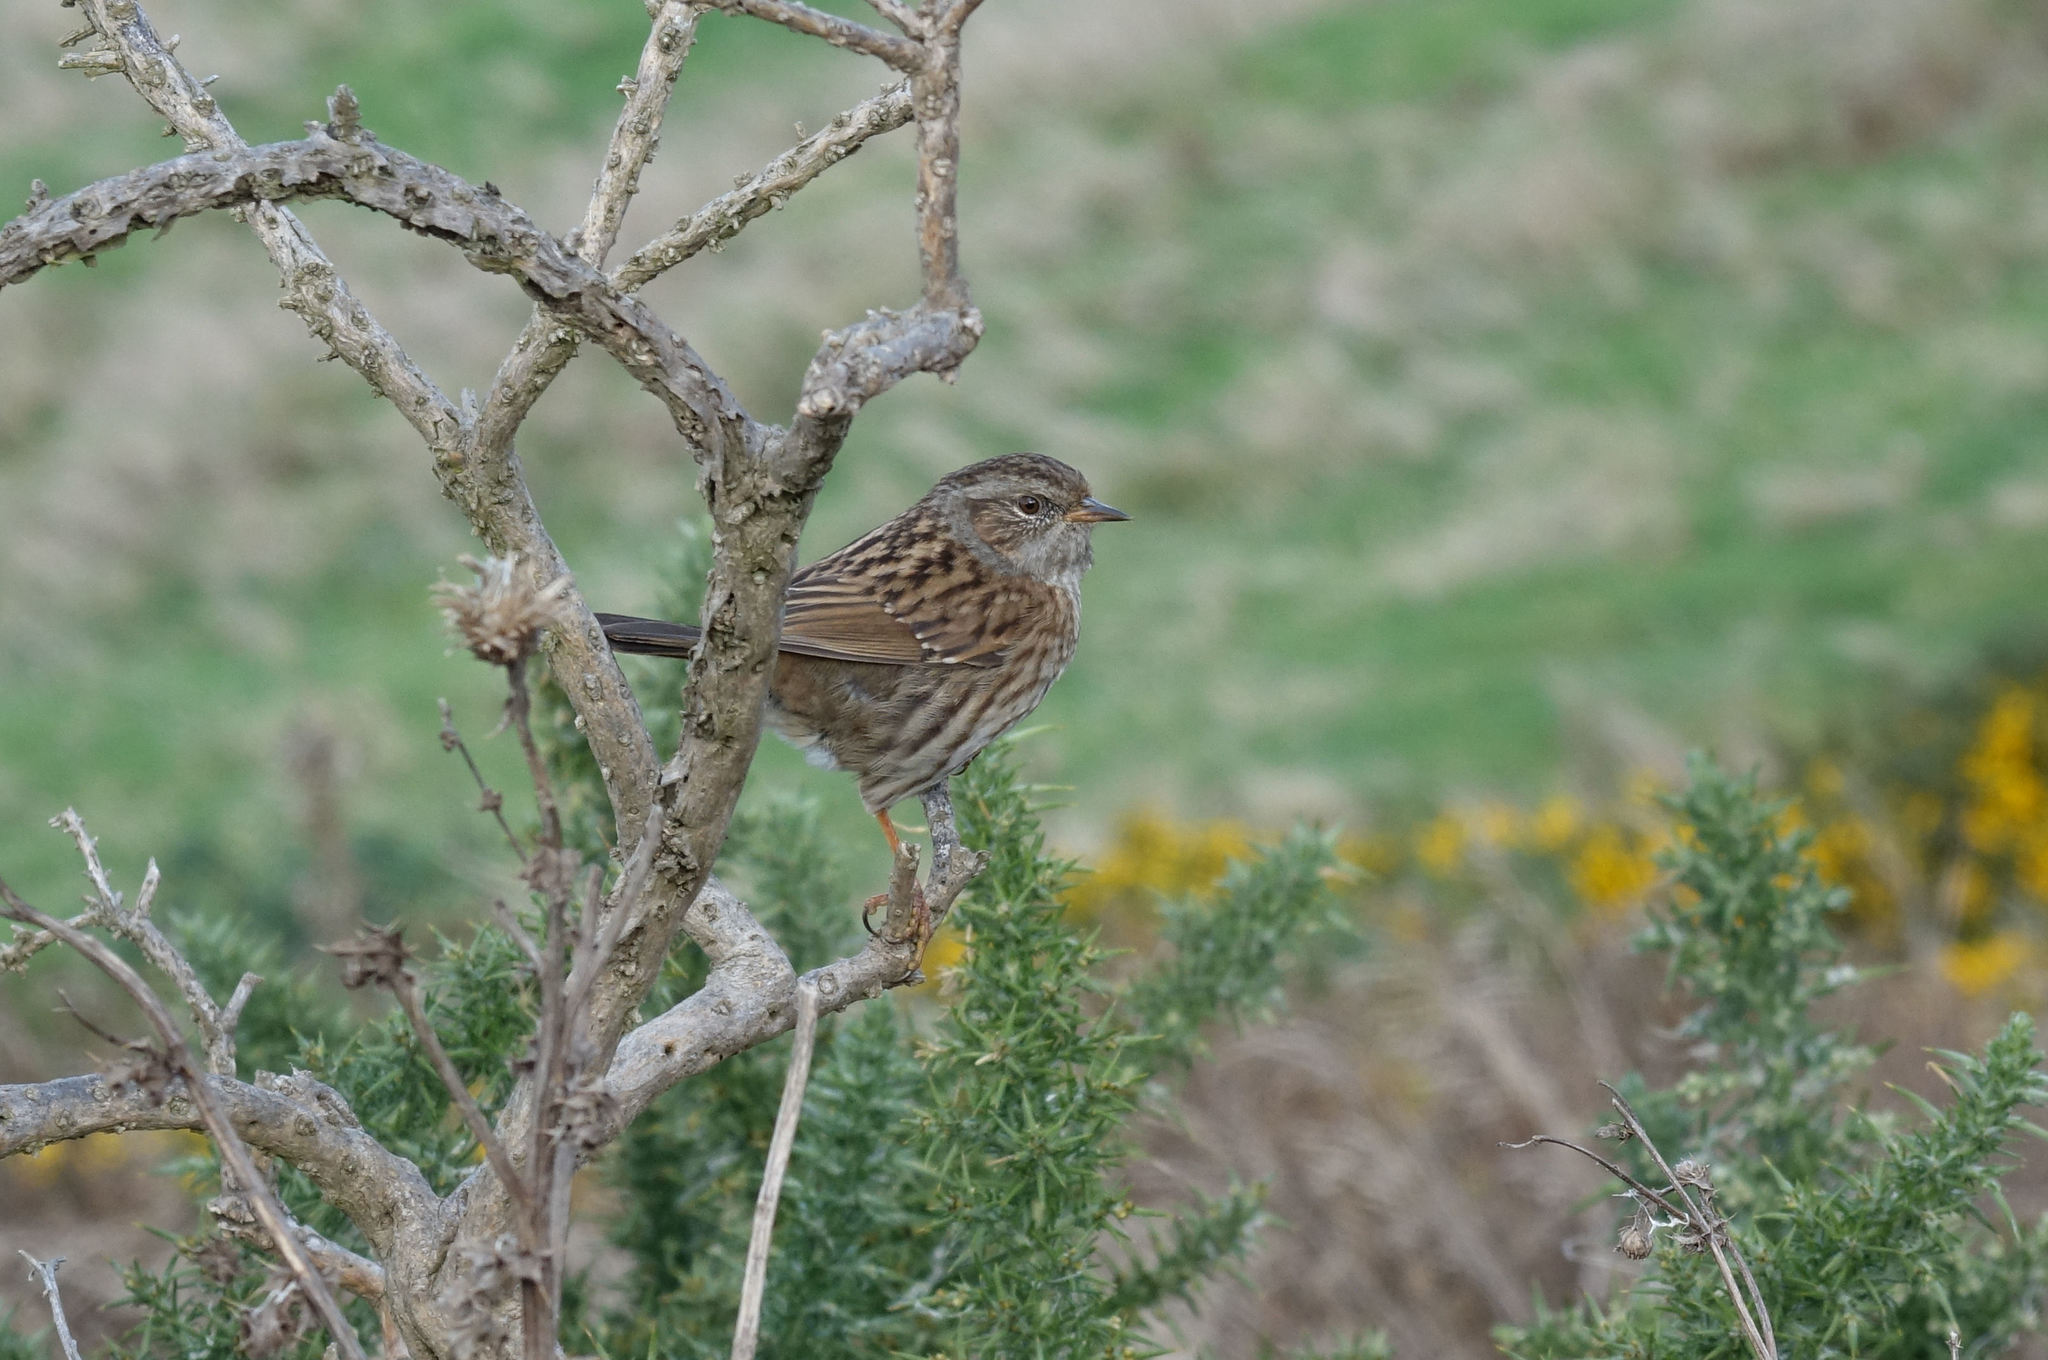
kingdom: Animalia
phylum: Chordata
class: Aves
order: Passeriformes
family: Prunellidae
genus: Prunella
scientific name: Prunella modularis
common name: Dunnock
